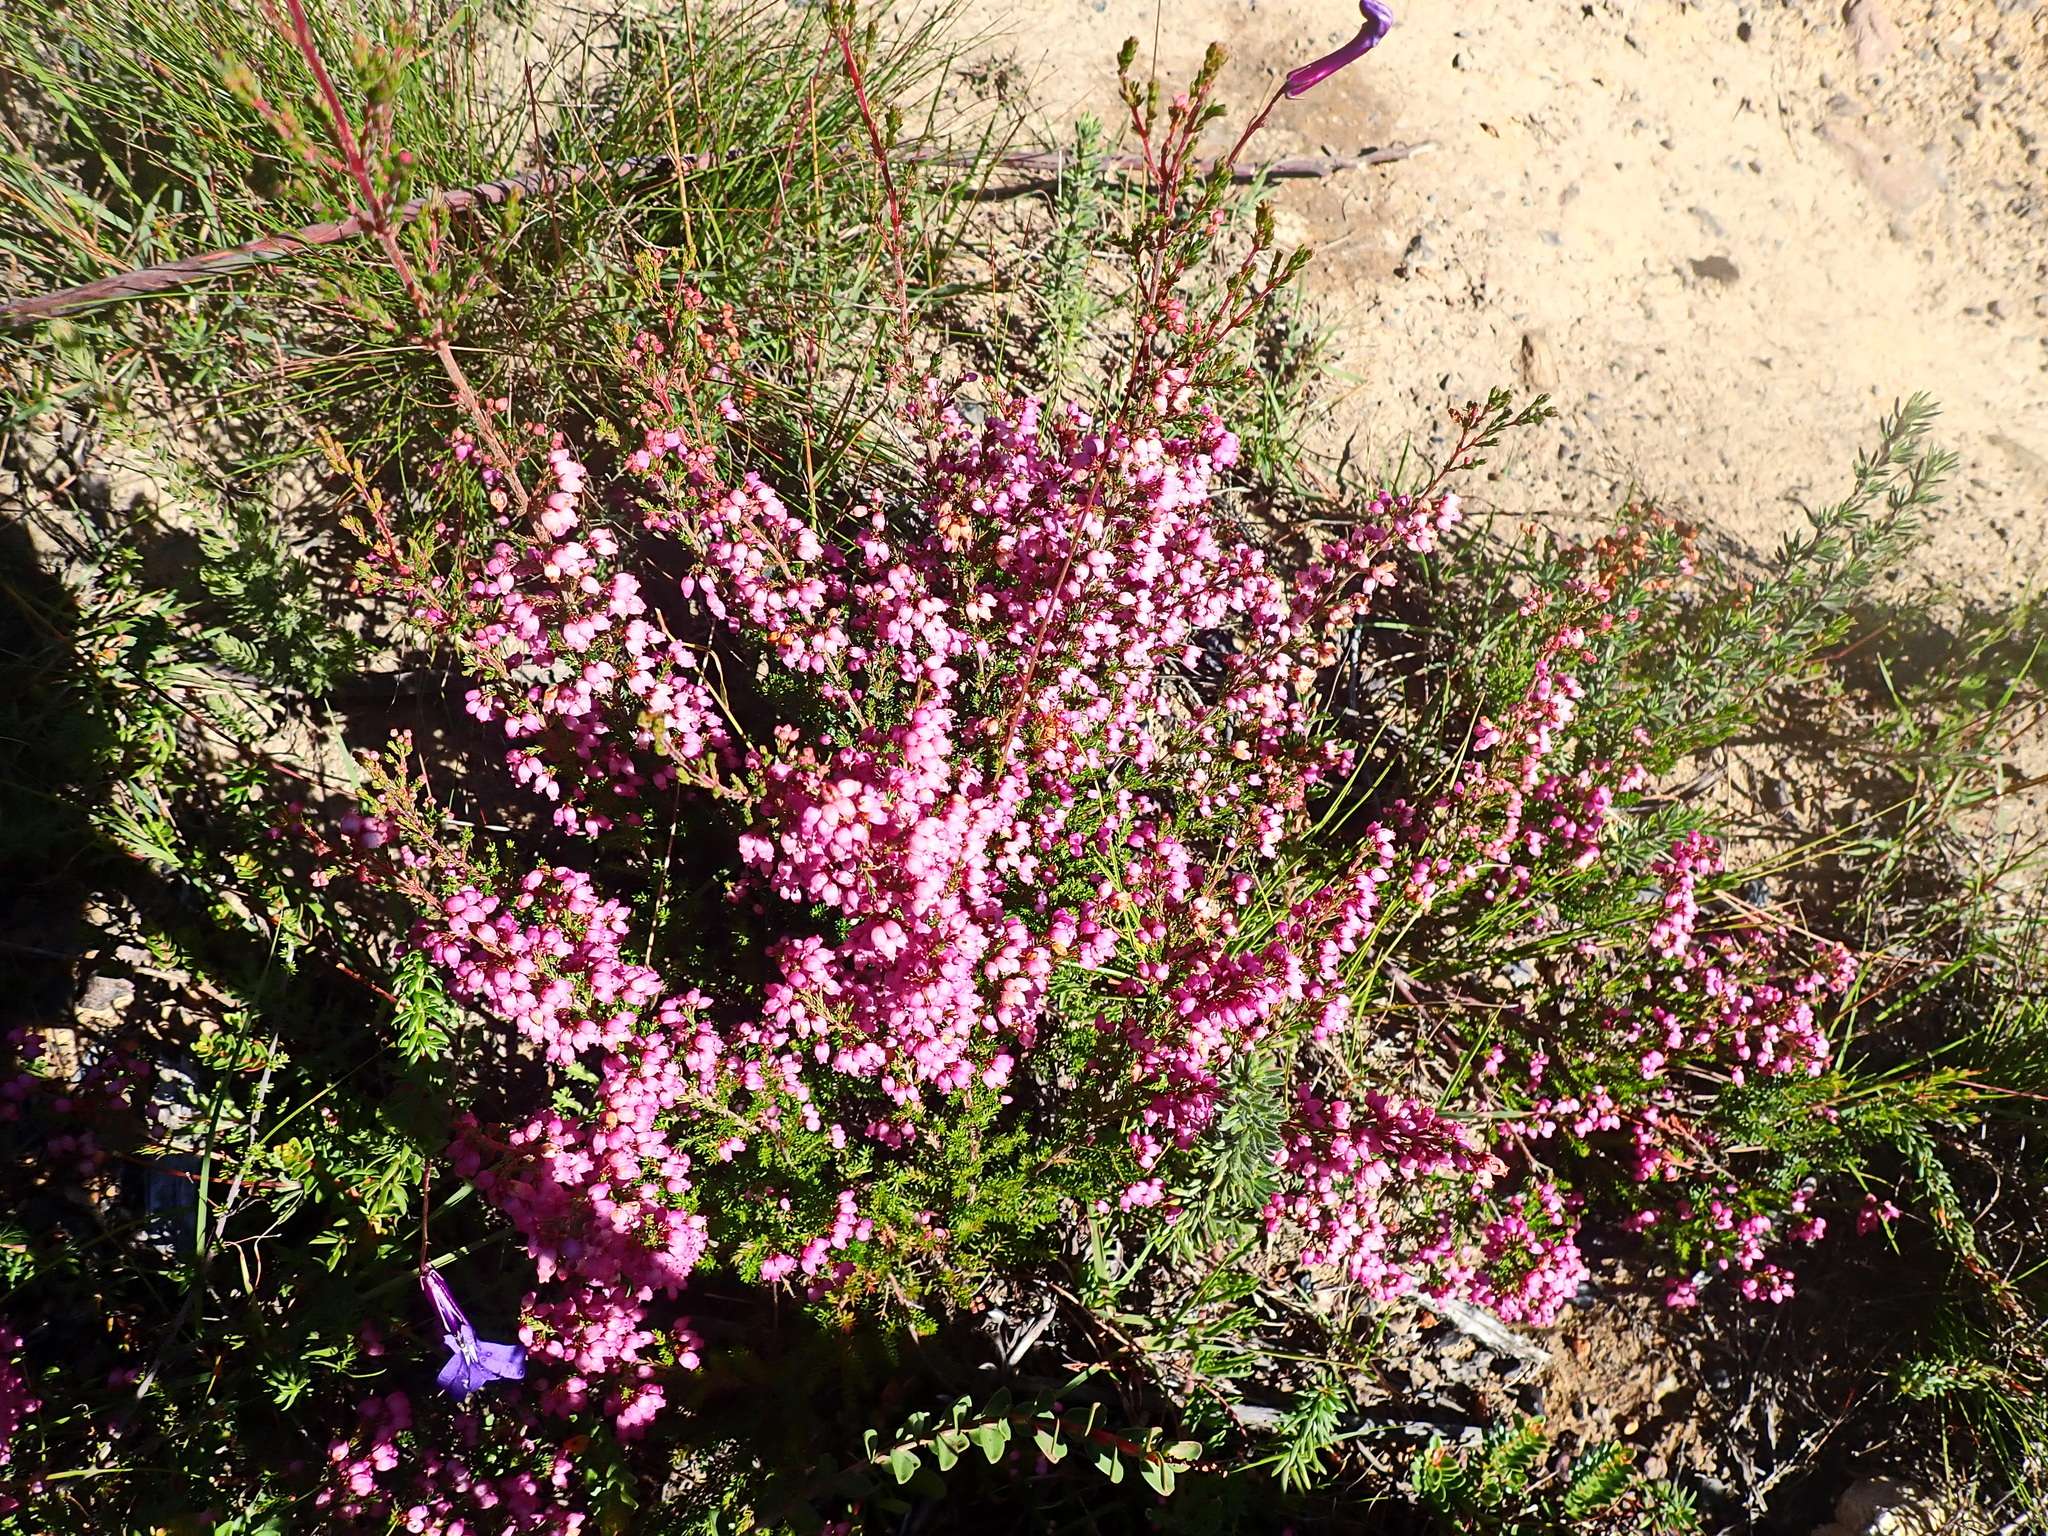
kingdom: Plantae
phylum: Tracheophyta
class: Magnoliopsida
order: Ericales
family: Ericaceae
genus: Erica
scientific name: Erica gracilis
